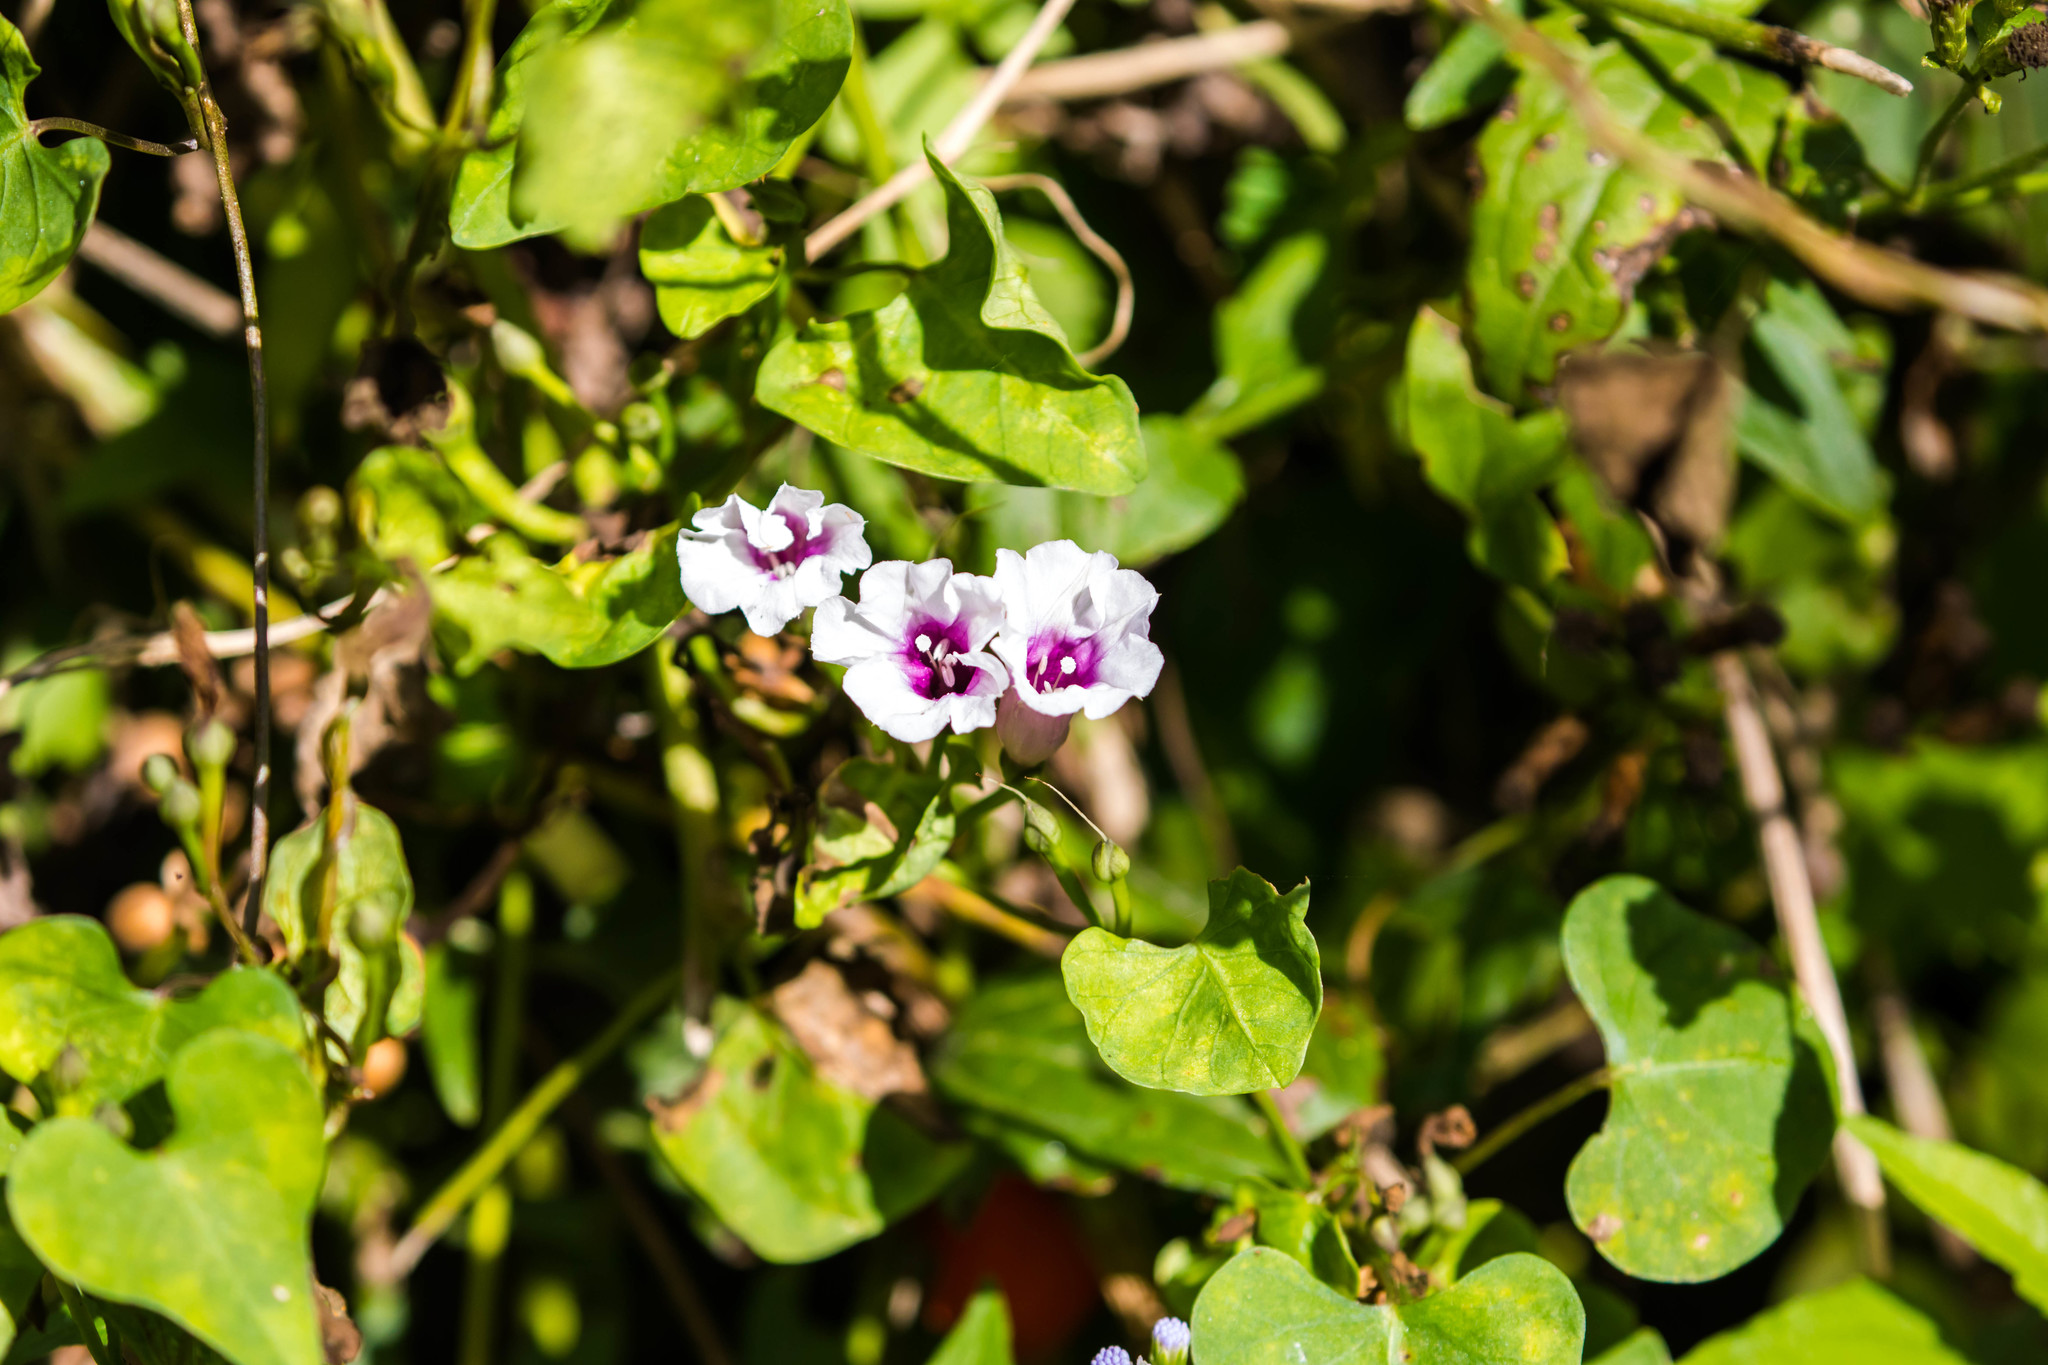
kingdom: Plantae
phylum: Tracheophyta
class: Magnoliopsida
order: Solanales
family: Convolvulaceae
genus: Ipomoea
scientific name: Ipomoea amnicola
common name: Redcenter morning-glory
